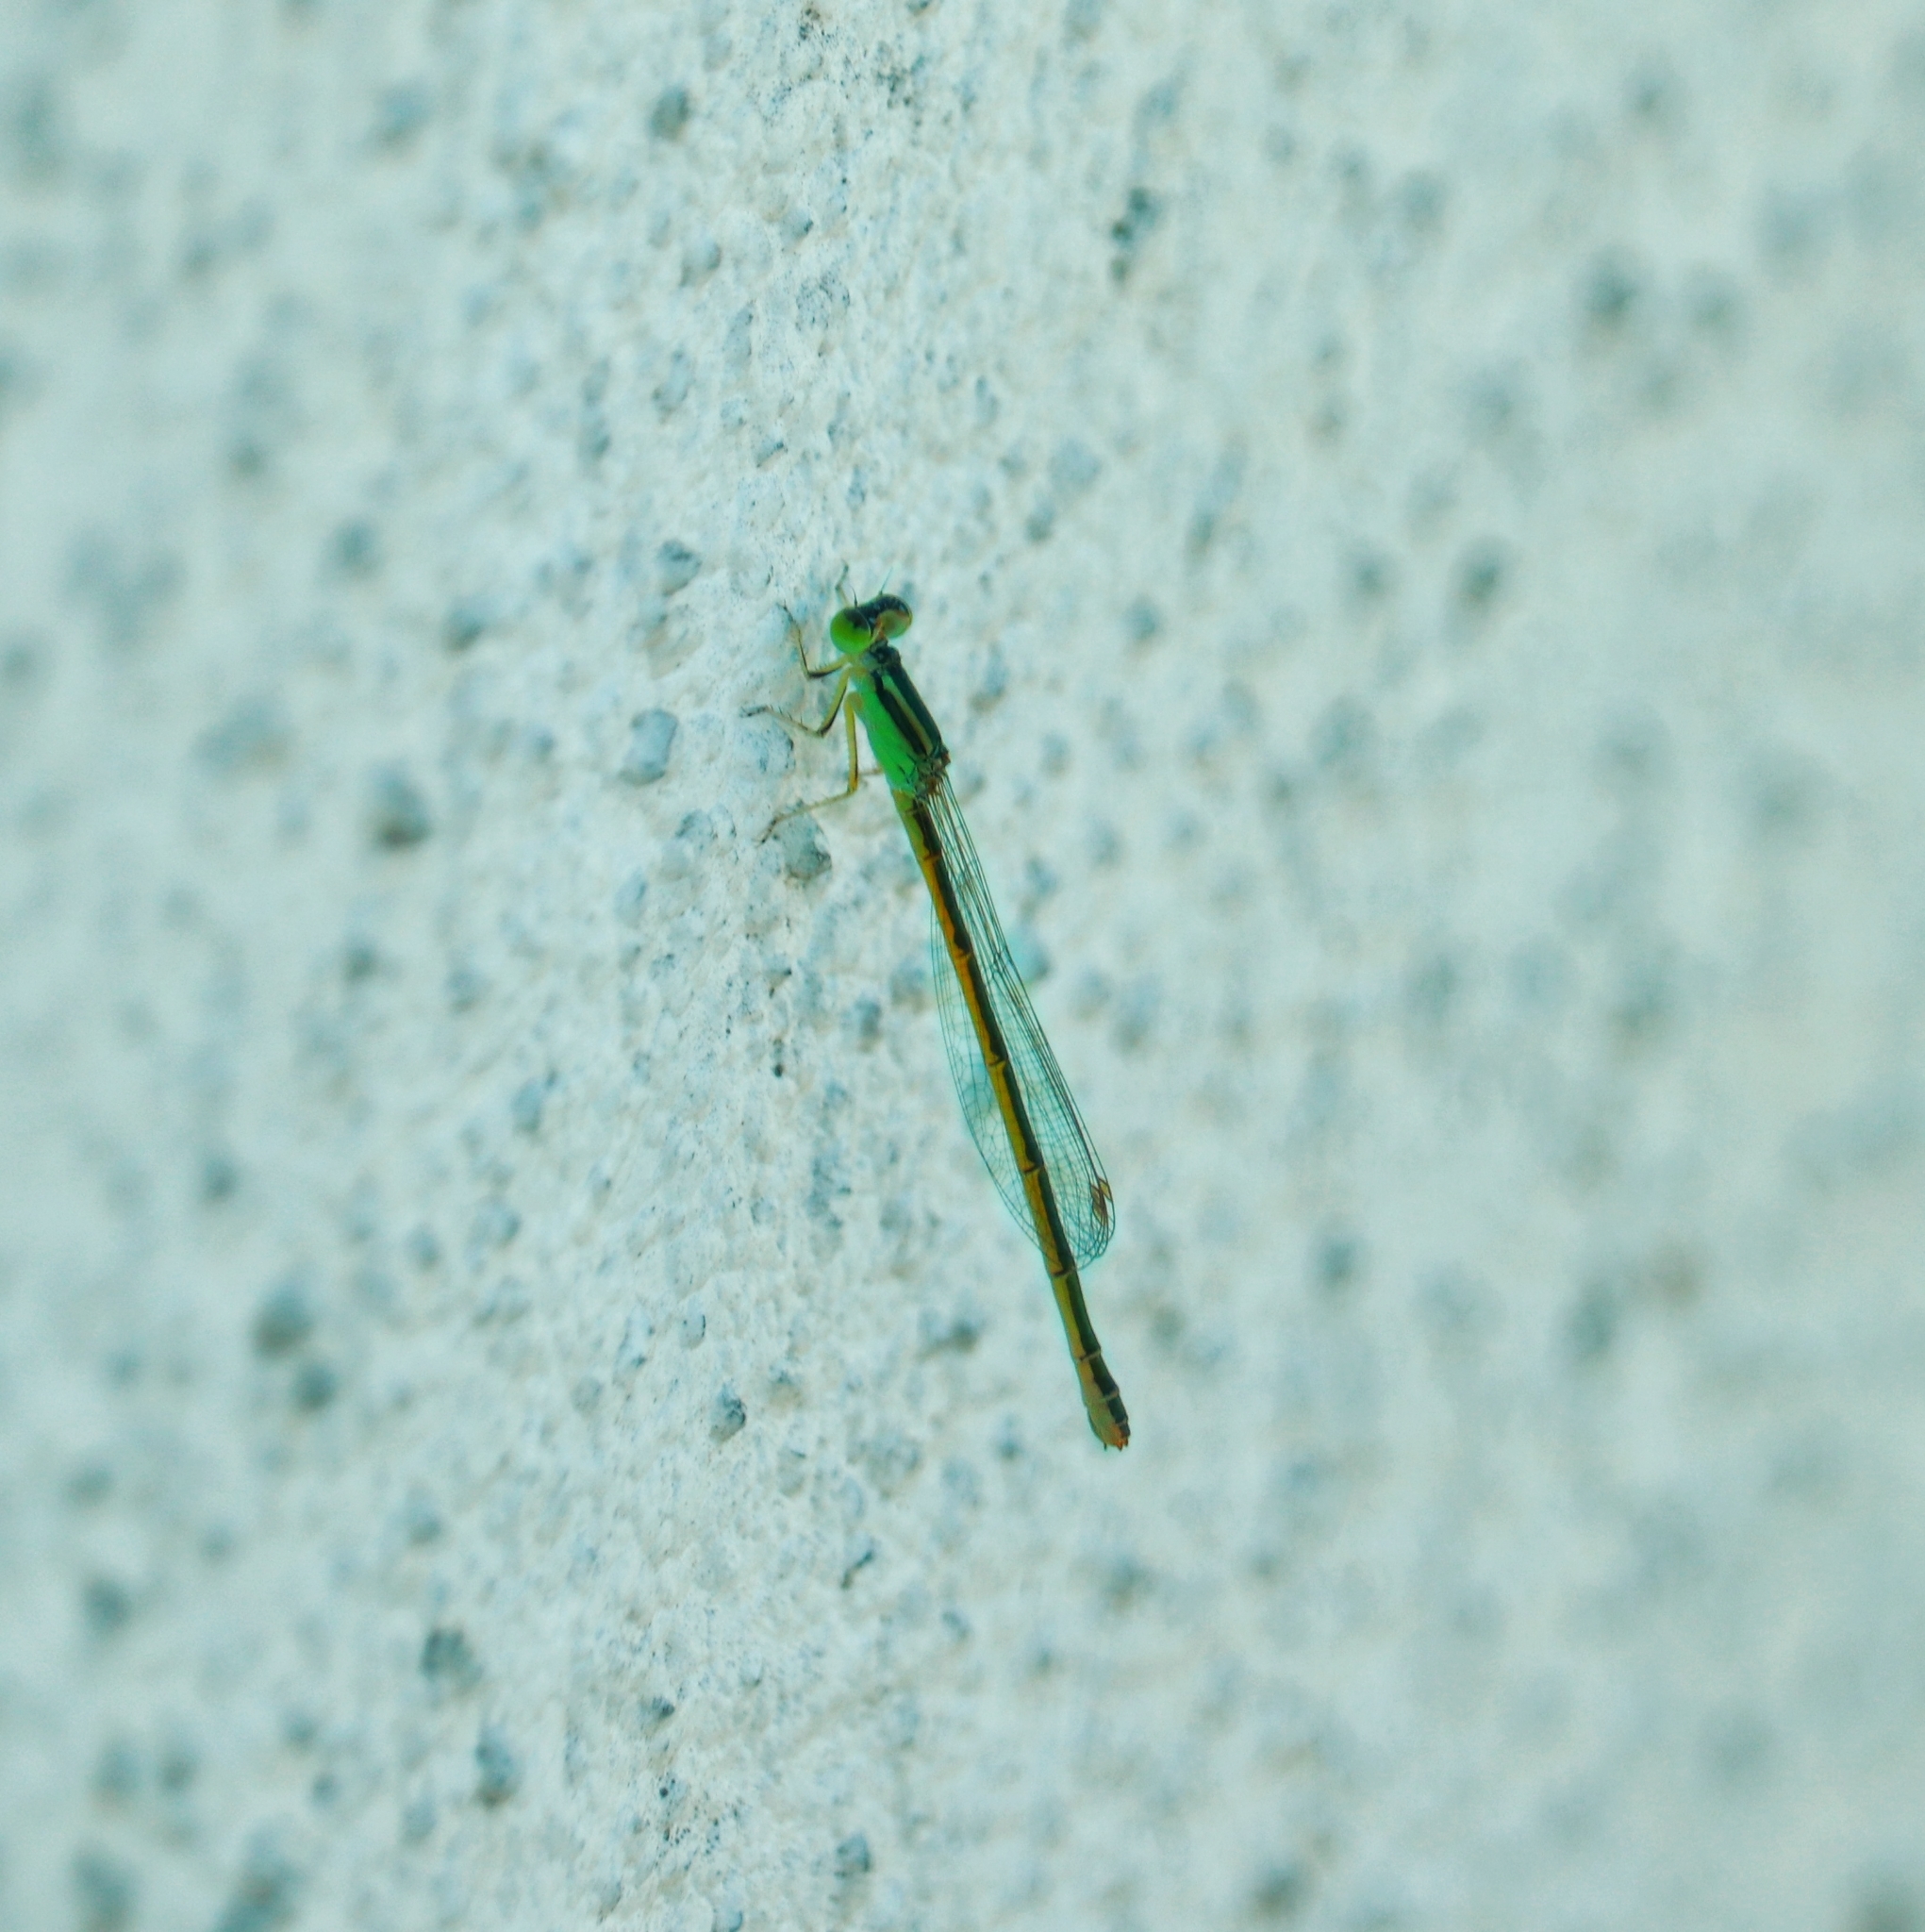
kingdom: Animalia
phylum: Arthropoda
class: Insecta
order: Odonata
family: Coenagrionidae
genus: Agriocnemis
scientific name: Agriocnemis pygmaea
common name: Pygmy wisp
